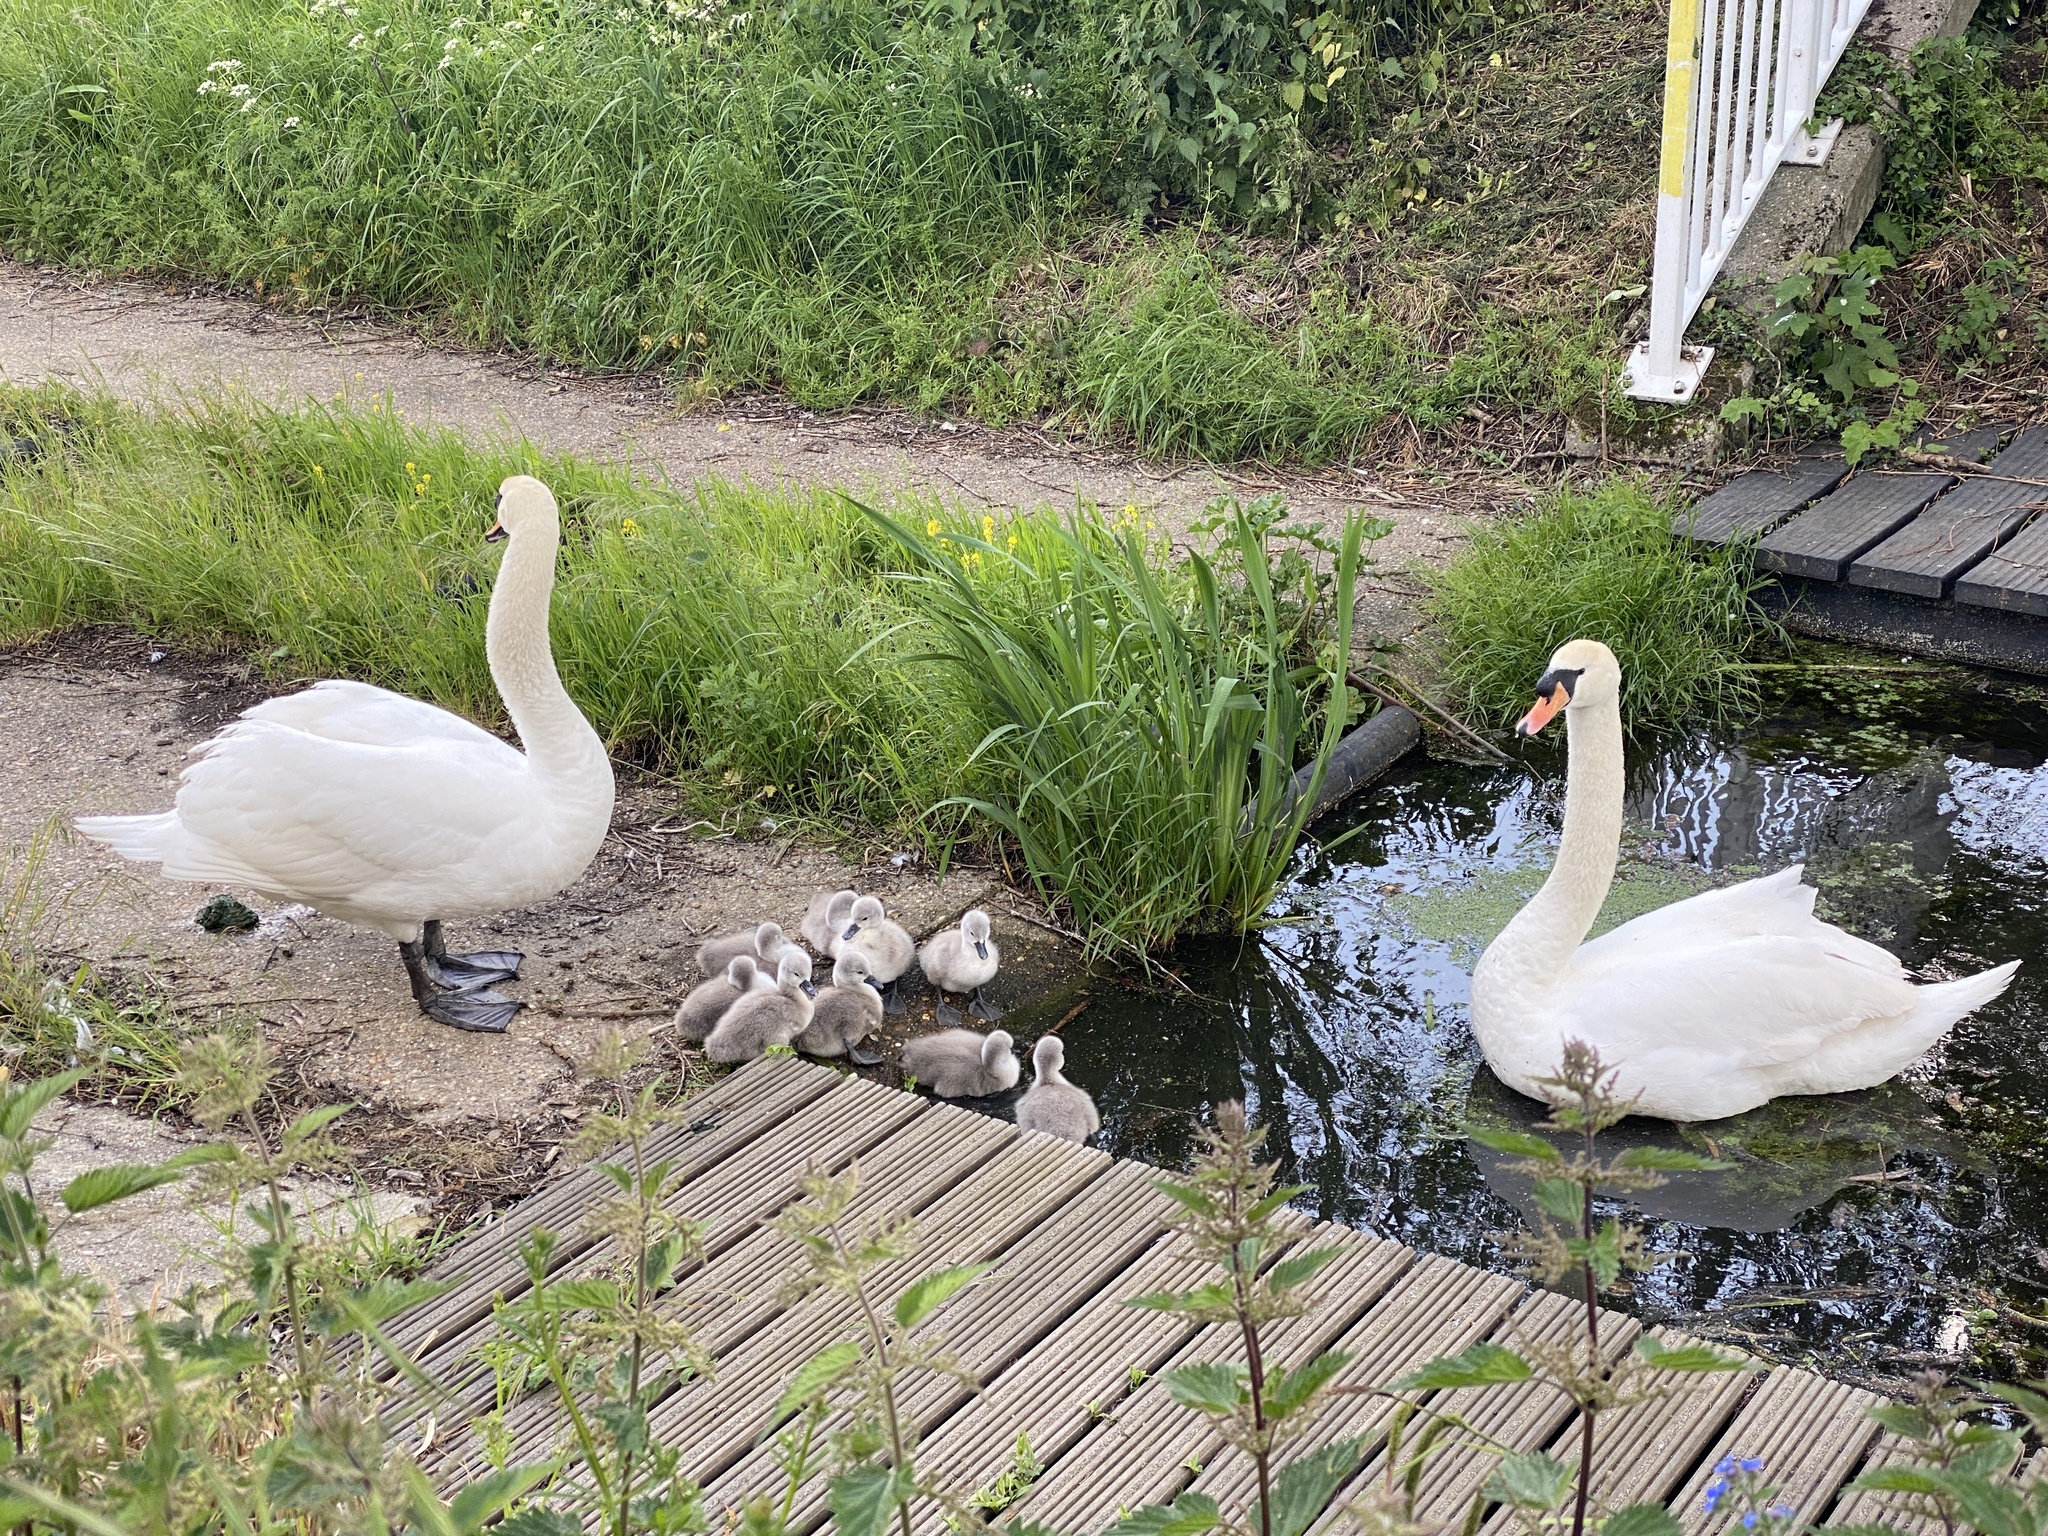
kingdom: Animalia
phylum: Chordata
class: Aves
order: Anseriformes
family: Anatidae
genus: Cygnus
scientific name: Cygnus olor
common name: Mute swan
